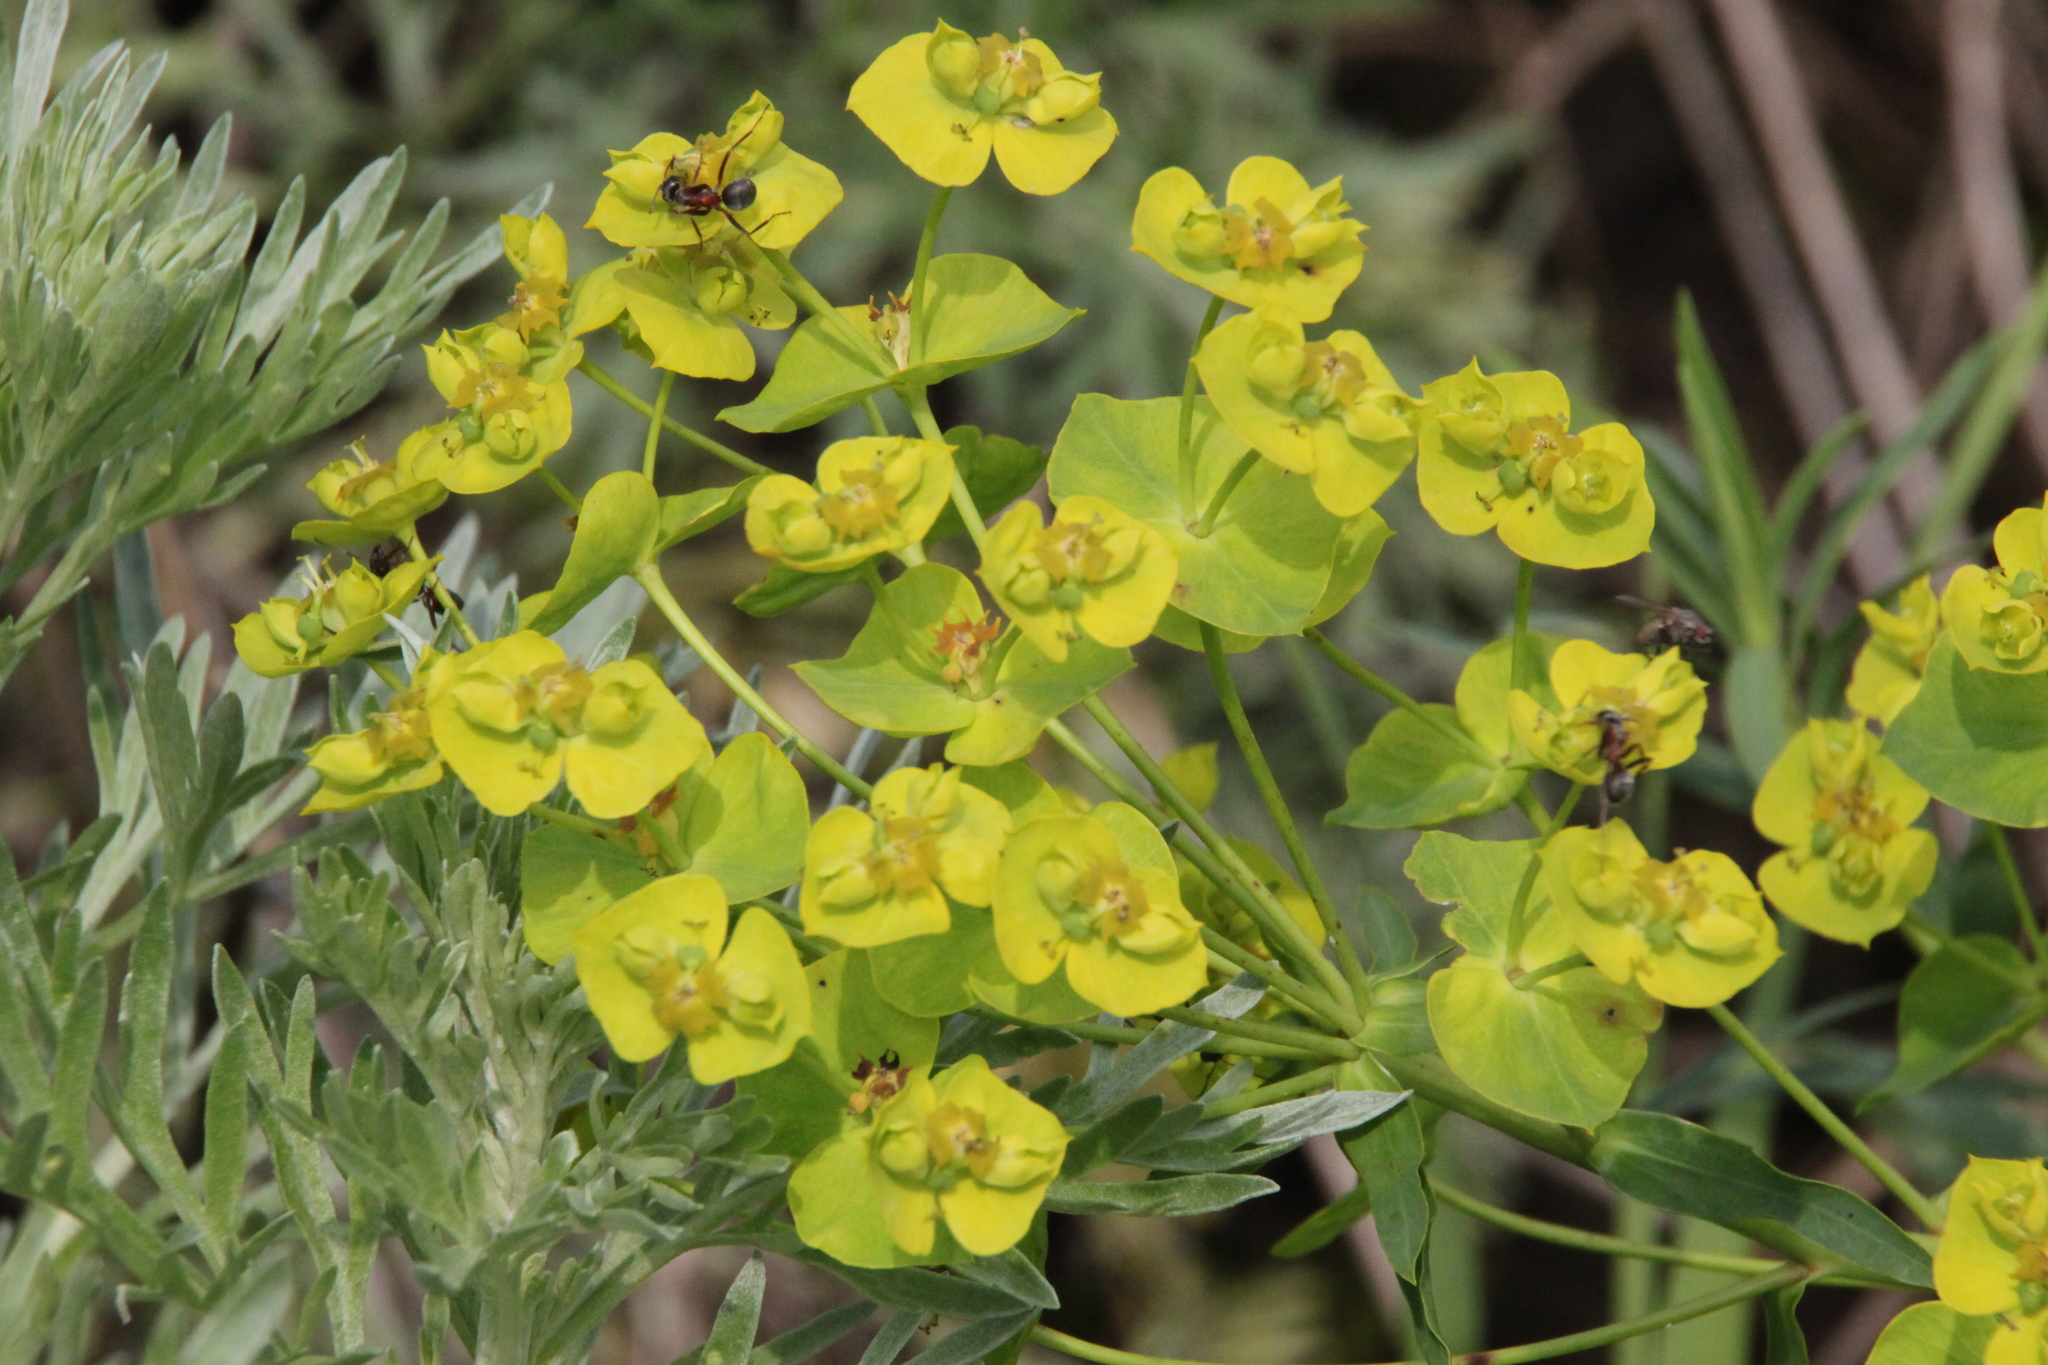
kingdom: Plantae
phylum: Tracheophyta
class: Magnoliopsida
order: Malpighiales
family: Euphorbiaceae
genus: Euphorbia
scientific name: Euphorbia virgata
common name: Leafy spurge
